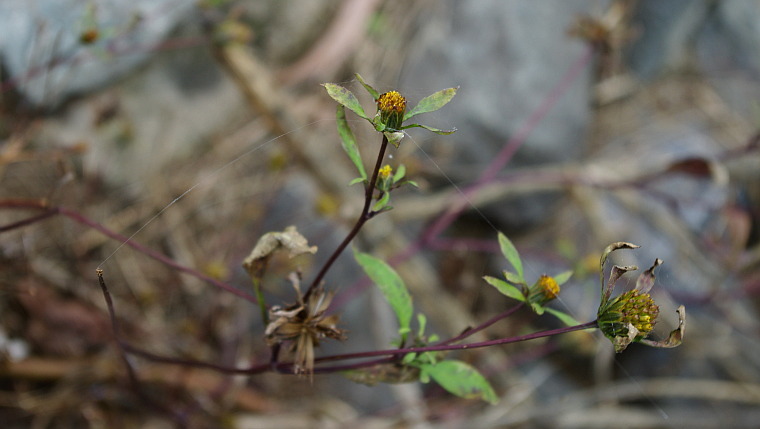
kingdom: Plantae
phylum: Tracheophyta
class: Magnoliopsida
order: Asterales
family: Asteraceae
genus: Bidens
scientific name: Bidens frondosa
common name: Beggarticks
